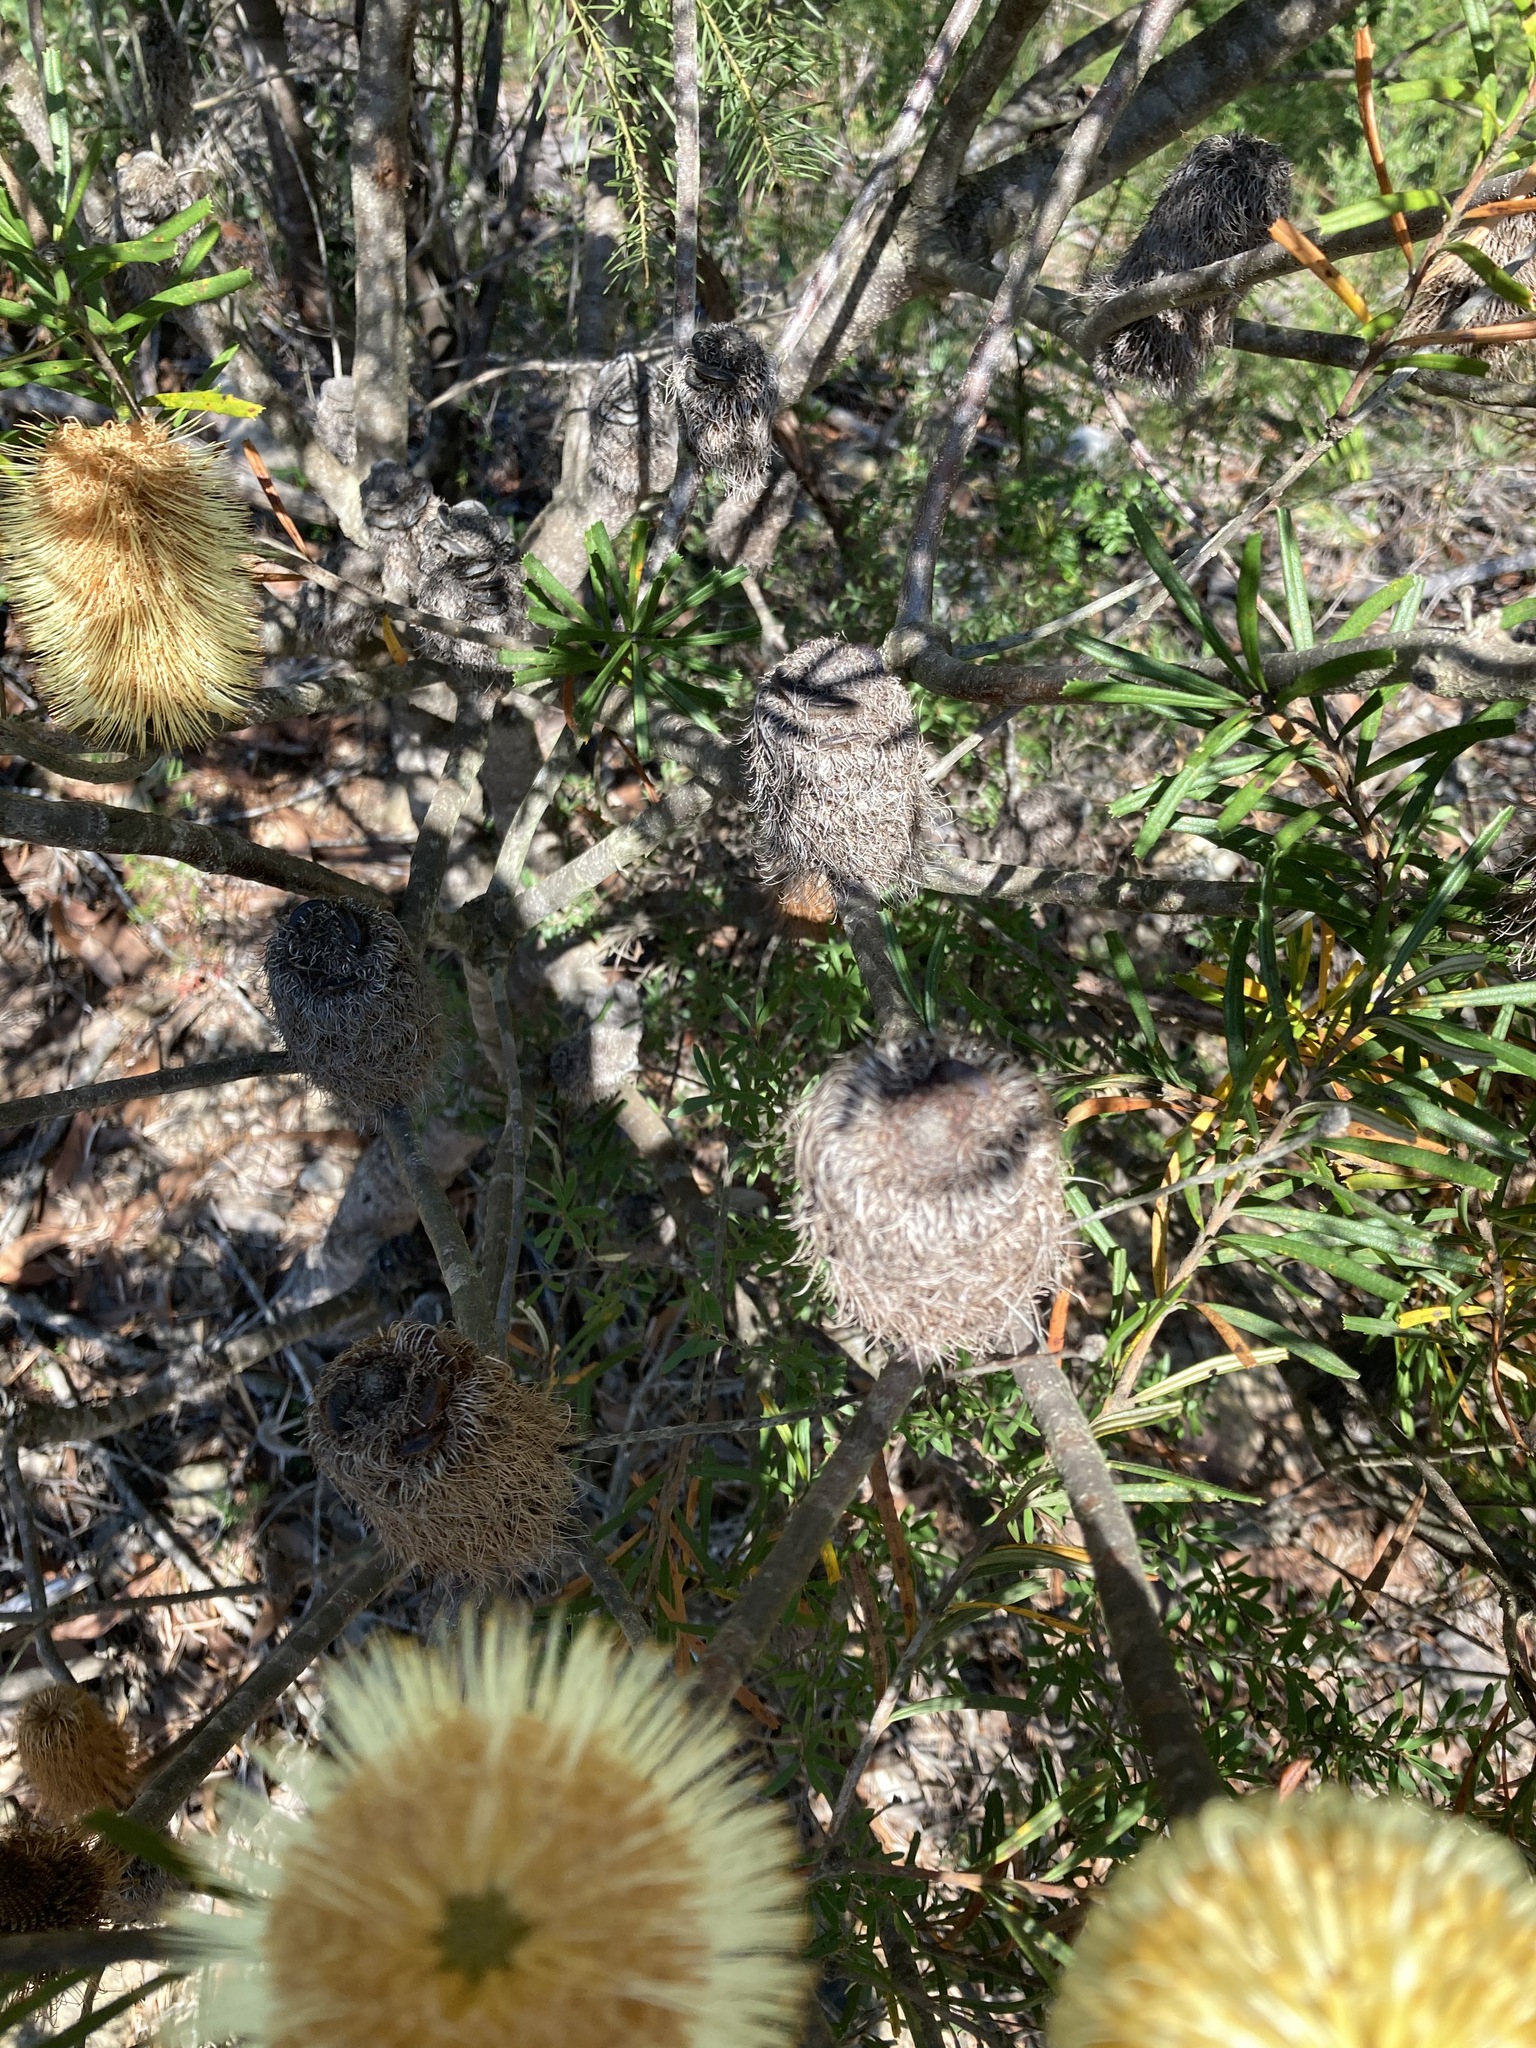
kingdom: Plantae
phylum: Tracheophyta
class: Magnoliopsida
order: Proteales
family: Proteaceae
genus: Banksia
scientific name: Banksia marginata
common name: Silver banksia
